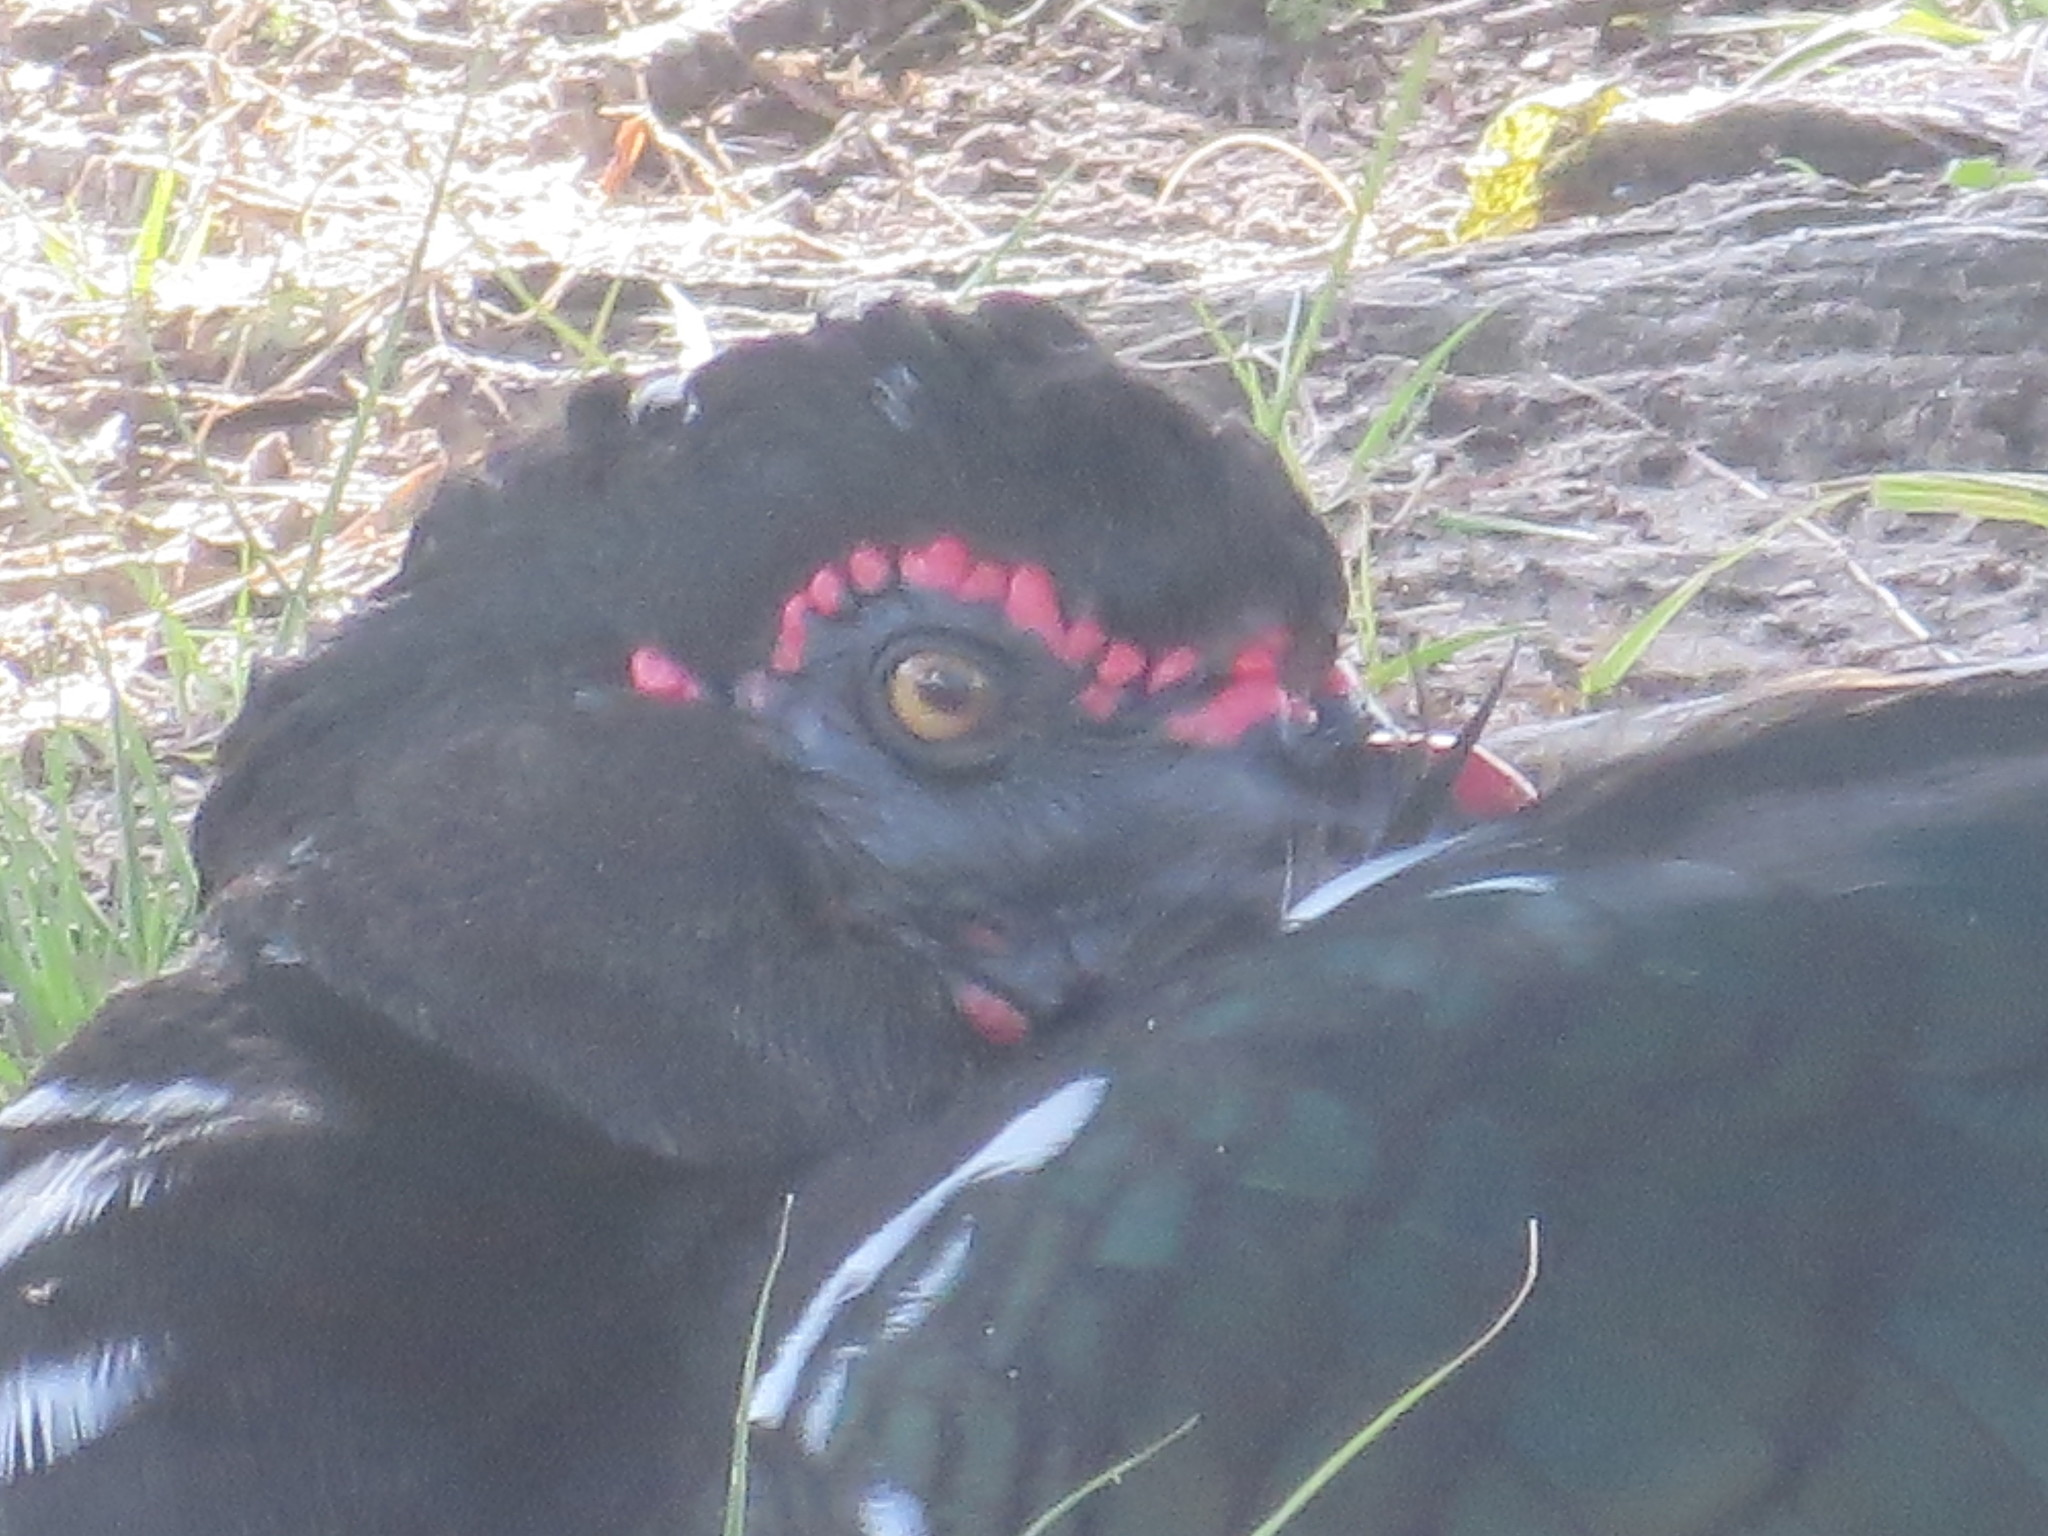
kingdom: Animalia
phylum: Chordata
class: Aves
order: Anseriformes
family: Anatidae
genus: Cairina
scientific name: Cairina moschata
